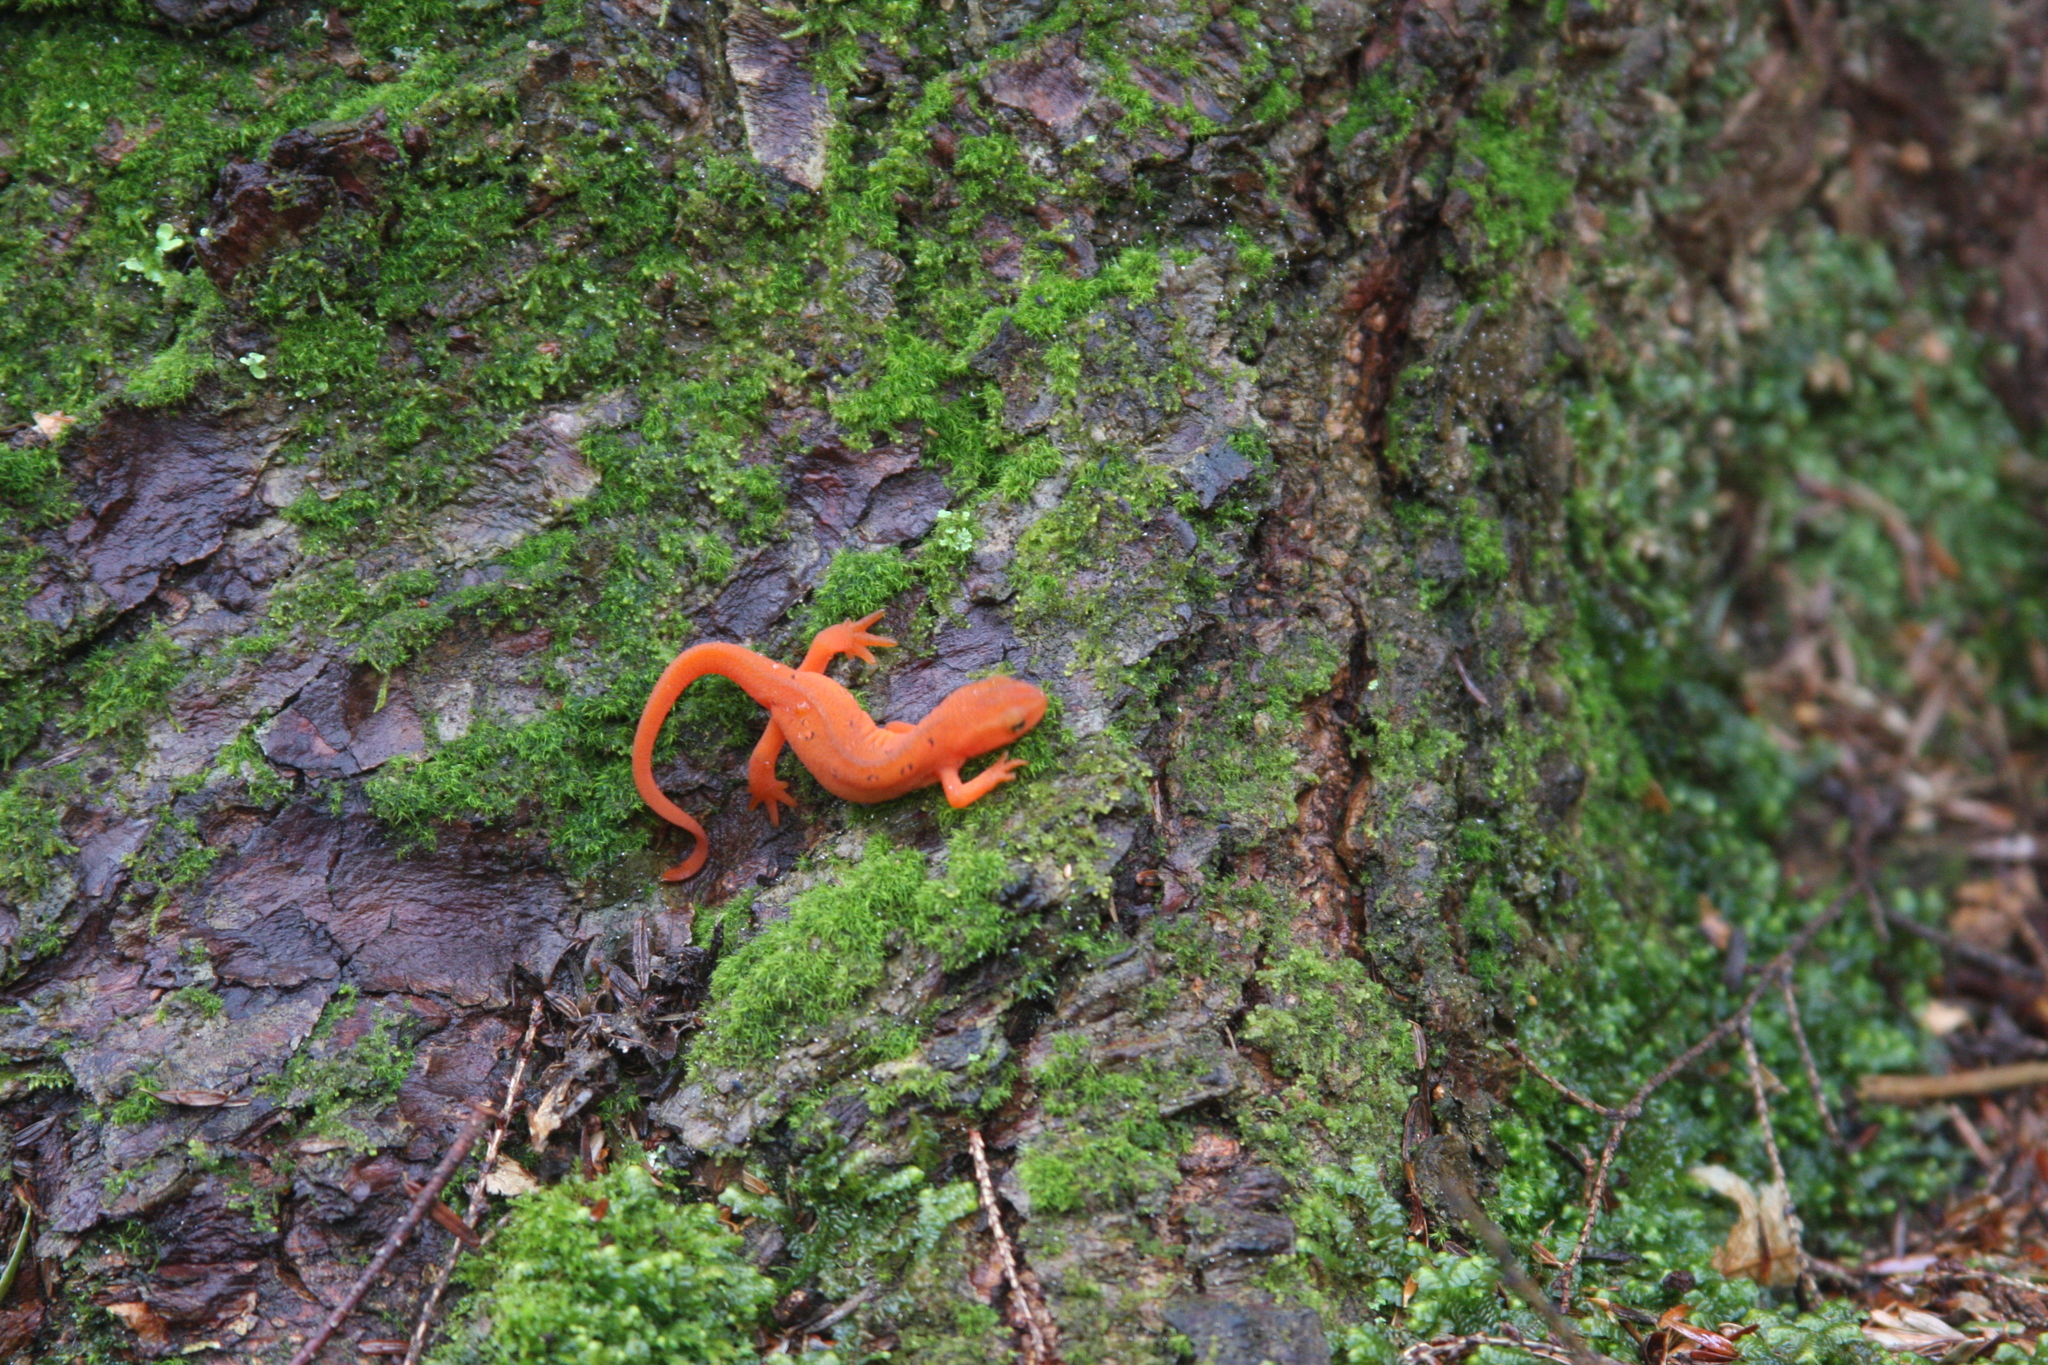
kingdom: Animalia
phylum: Chordata
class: Amphibia
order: Caudata
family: Salamandridae
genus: Notophthalmus
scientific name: Notophthalmus viridescens
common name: Eastern newt
